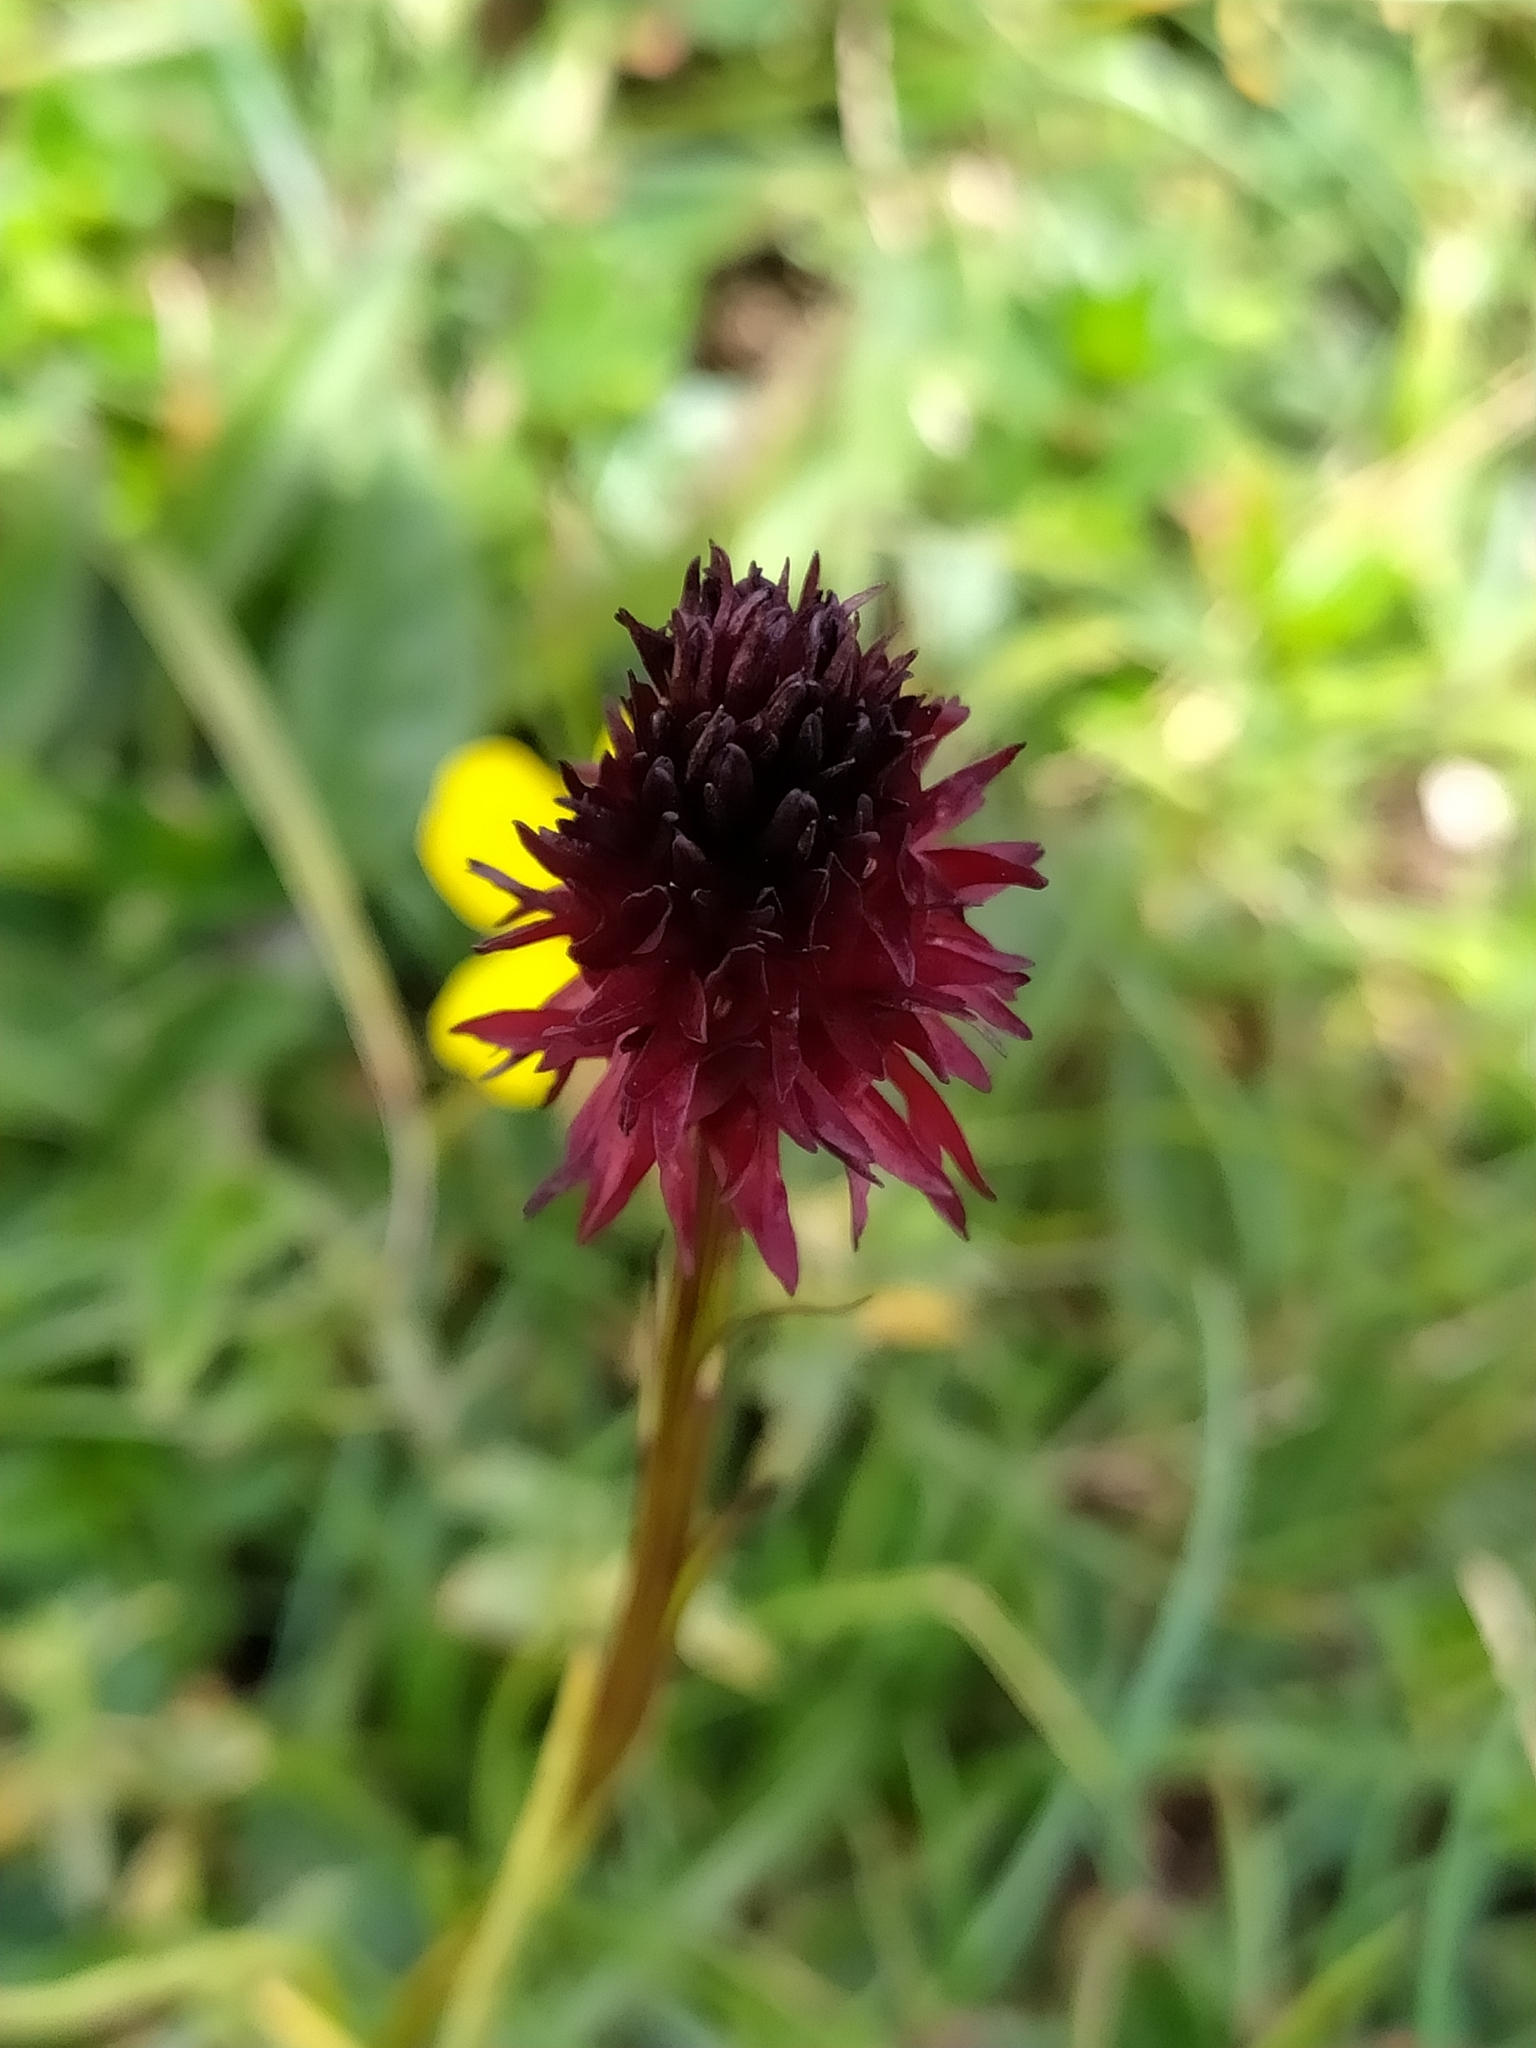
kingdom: Plantae
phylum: Tracheophyta
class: Liliopsida
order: Asparagales
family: Orchidaceae
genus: Gymnadenia
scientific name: Gymnadenia rhellicani
